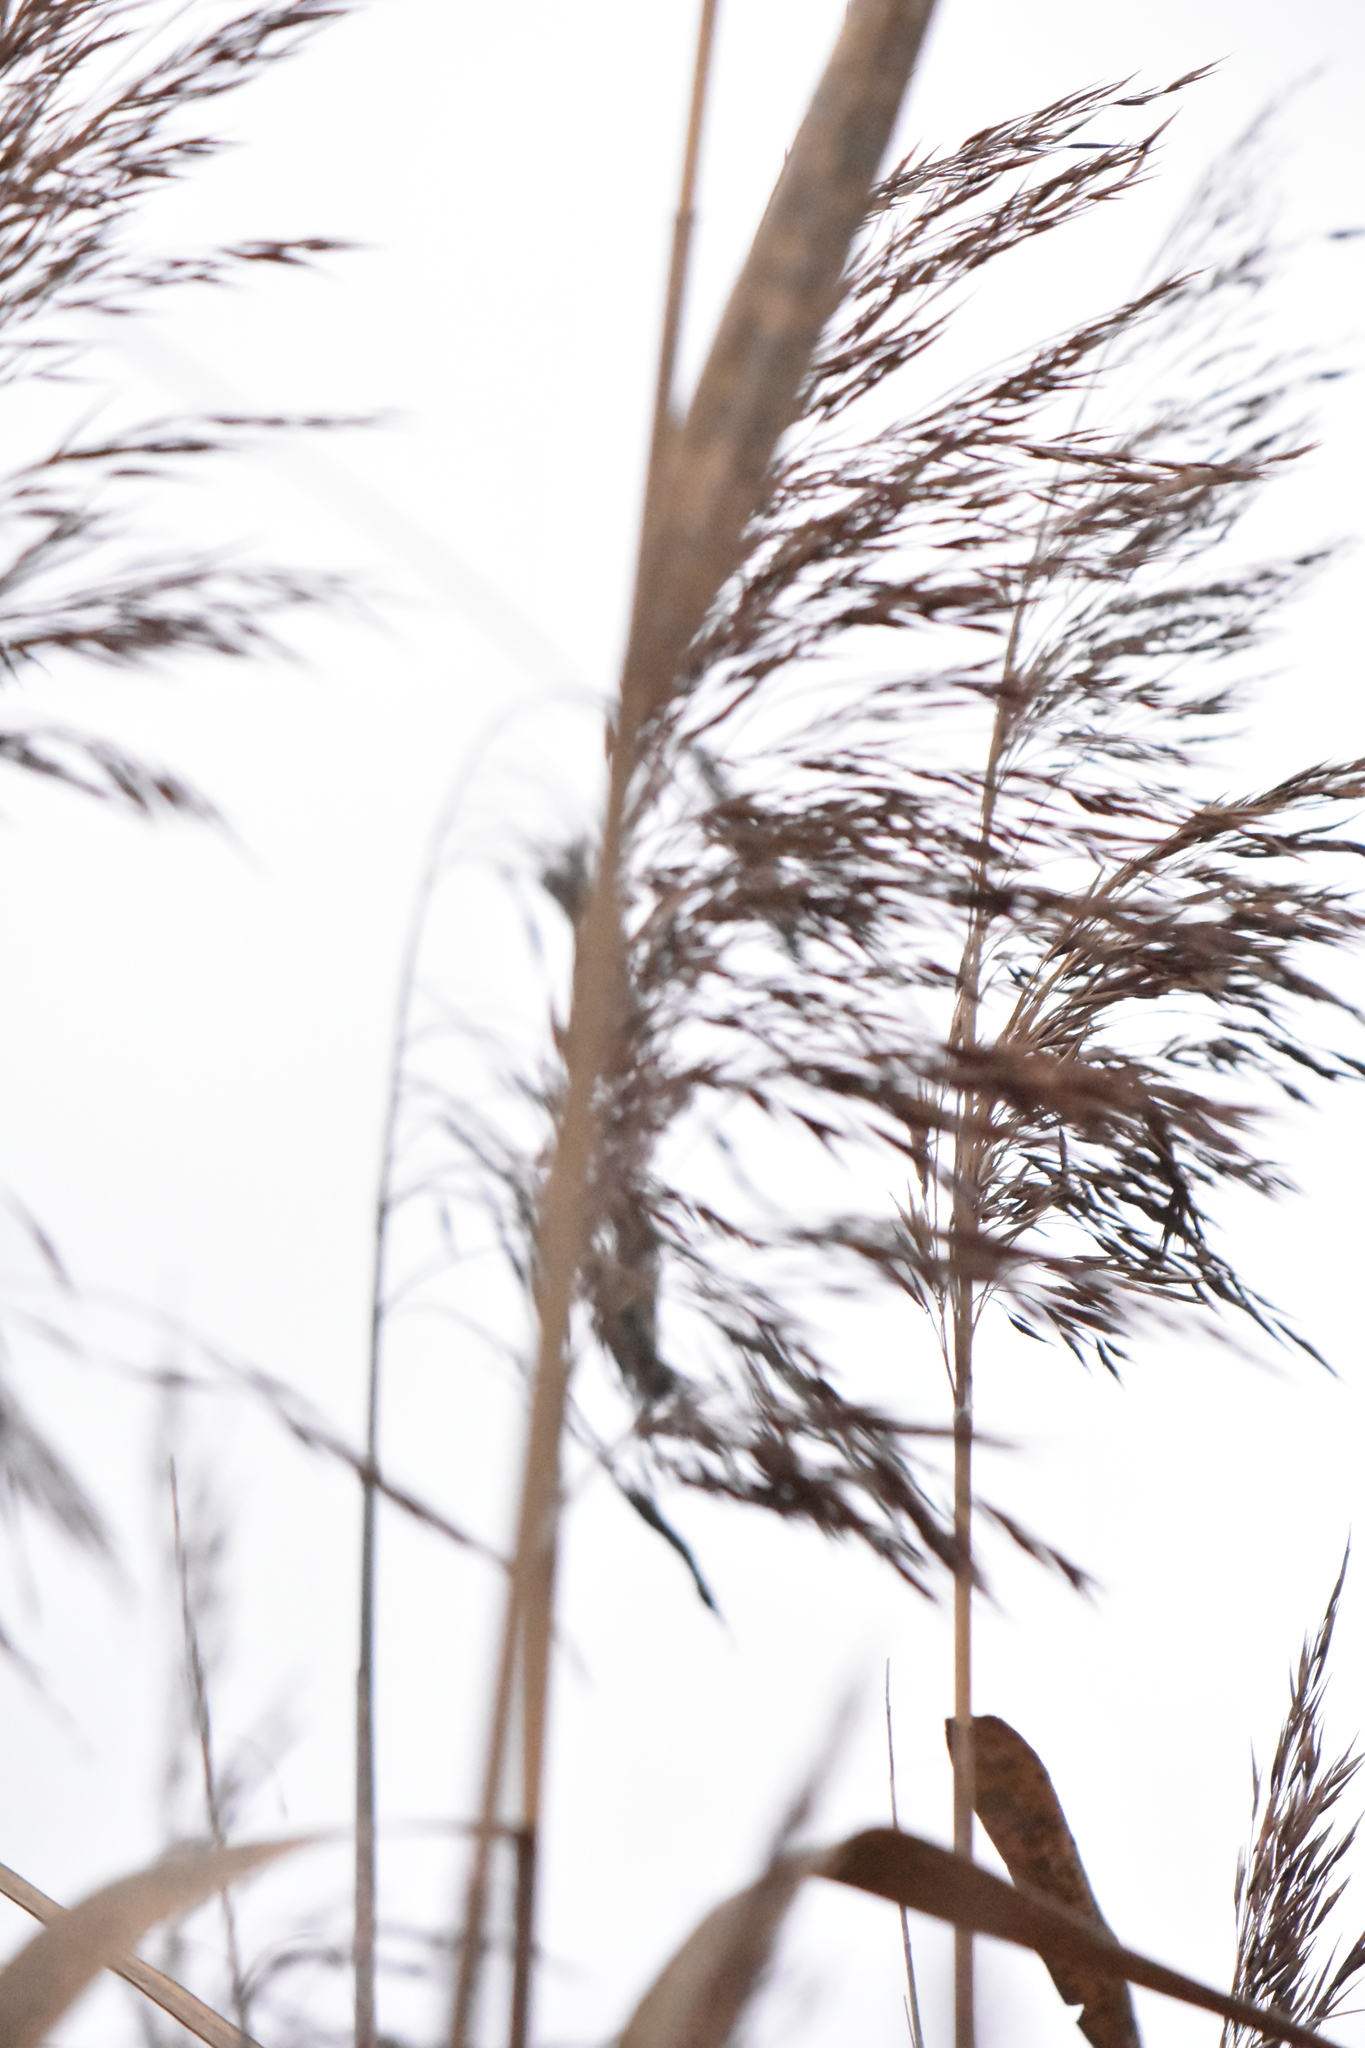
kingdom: Plantae
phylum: Tracheophyta
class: Liliopsida
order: Poales
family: Poaceae
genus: Phragmites
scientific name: Phragmites australis
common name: Common reed
